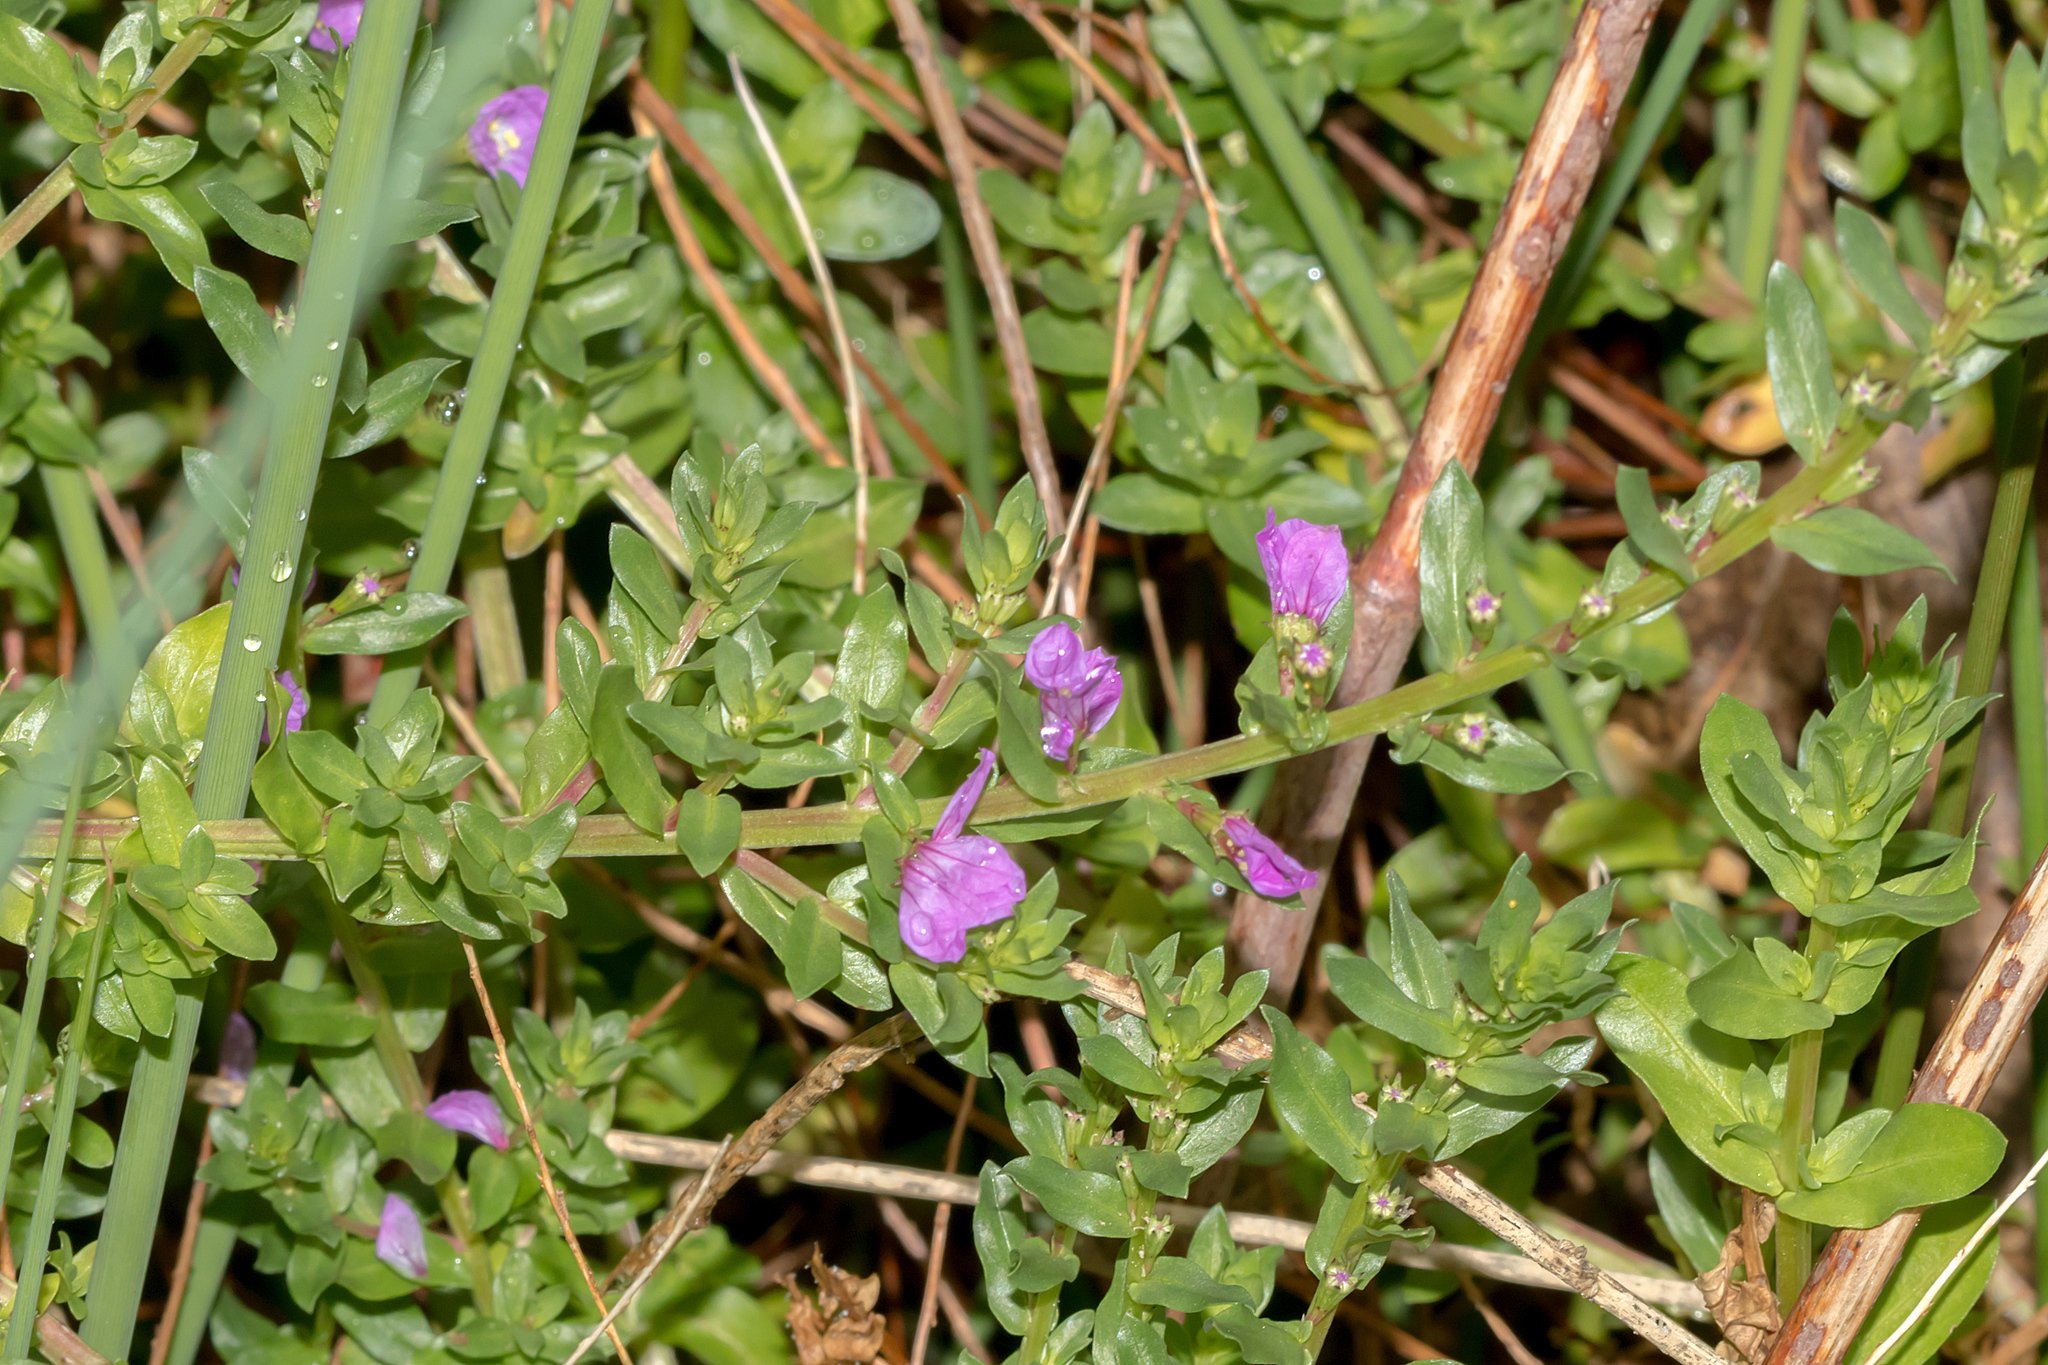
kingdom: Plantae
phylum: Tracheophyta
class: Magnoliopsida
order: Myrtales
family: Lythraceae
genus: Lythrum
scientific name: Lythrum junceum
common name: False grass-poly
